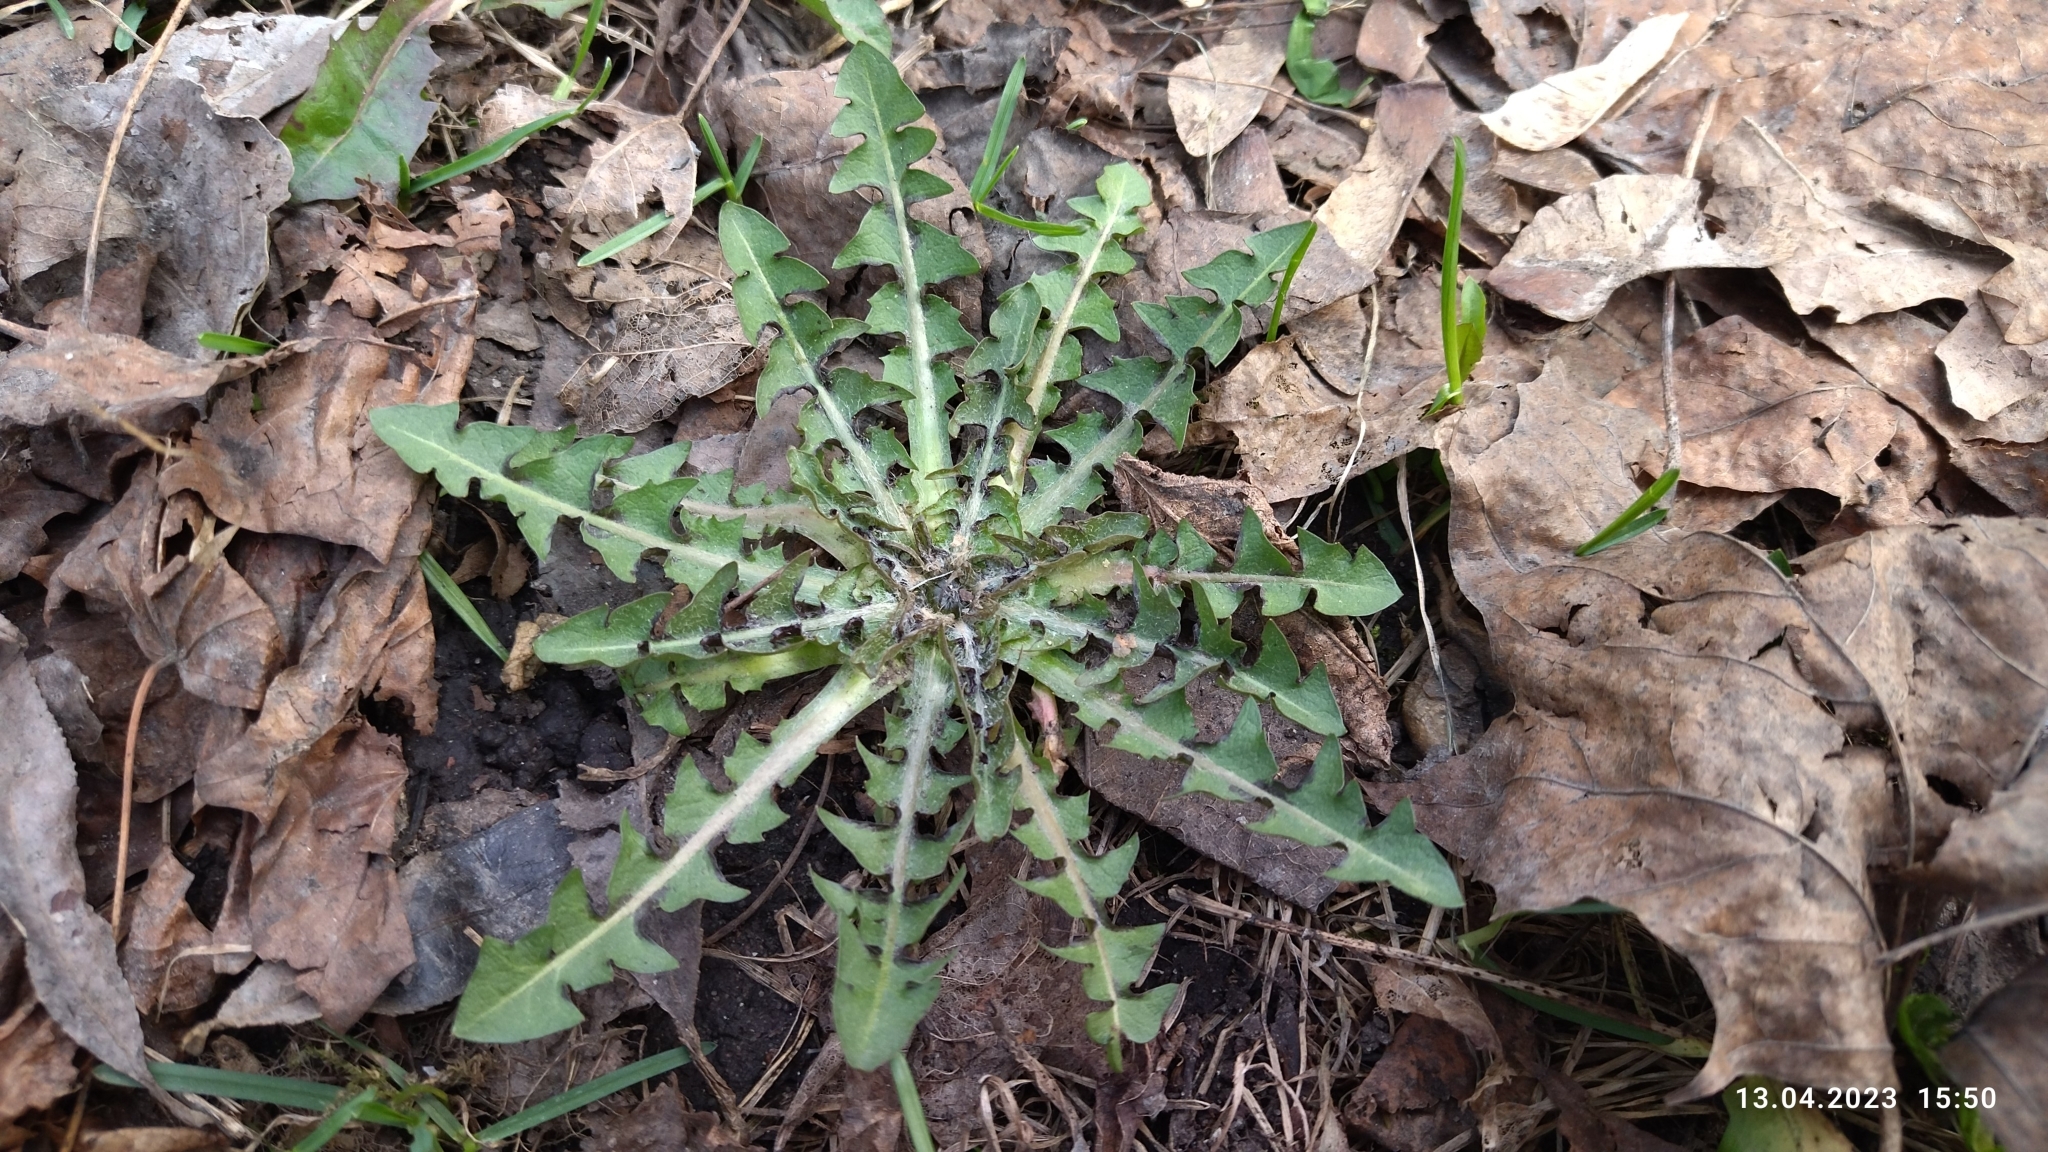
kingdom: Plantae
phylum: Tracheophyta
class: Magnoliopsida
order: Asterales
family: Asteraceae
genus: Taraxacum
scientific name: Taraxacum officinale
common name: Common dandelion
